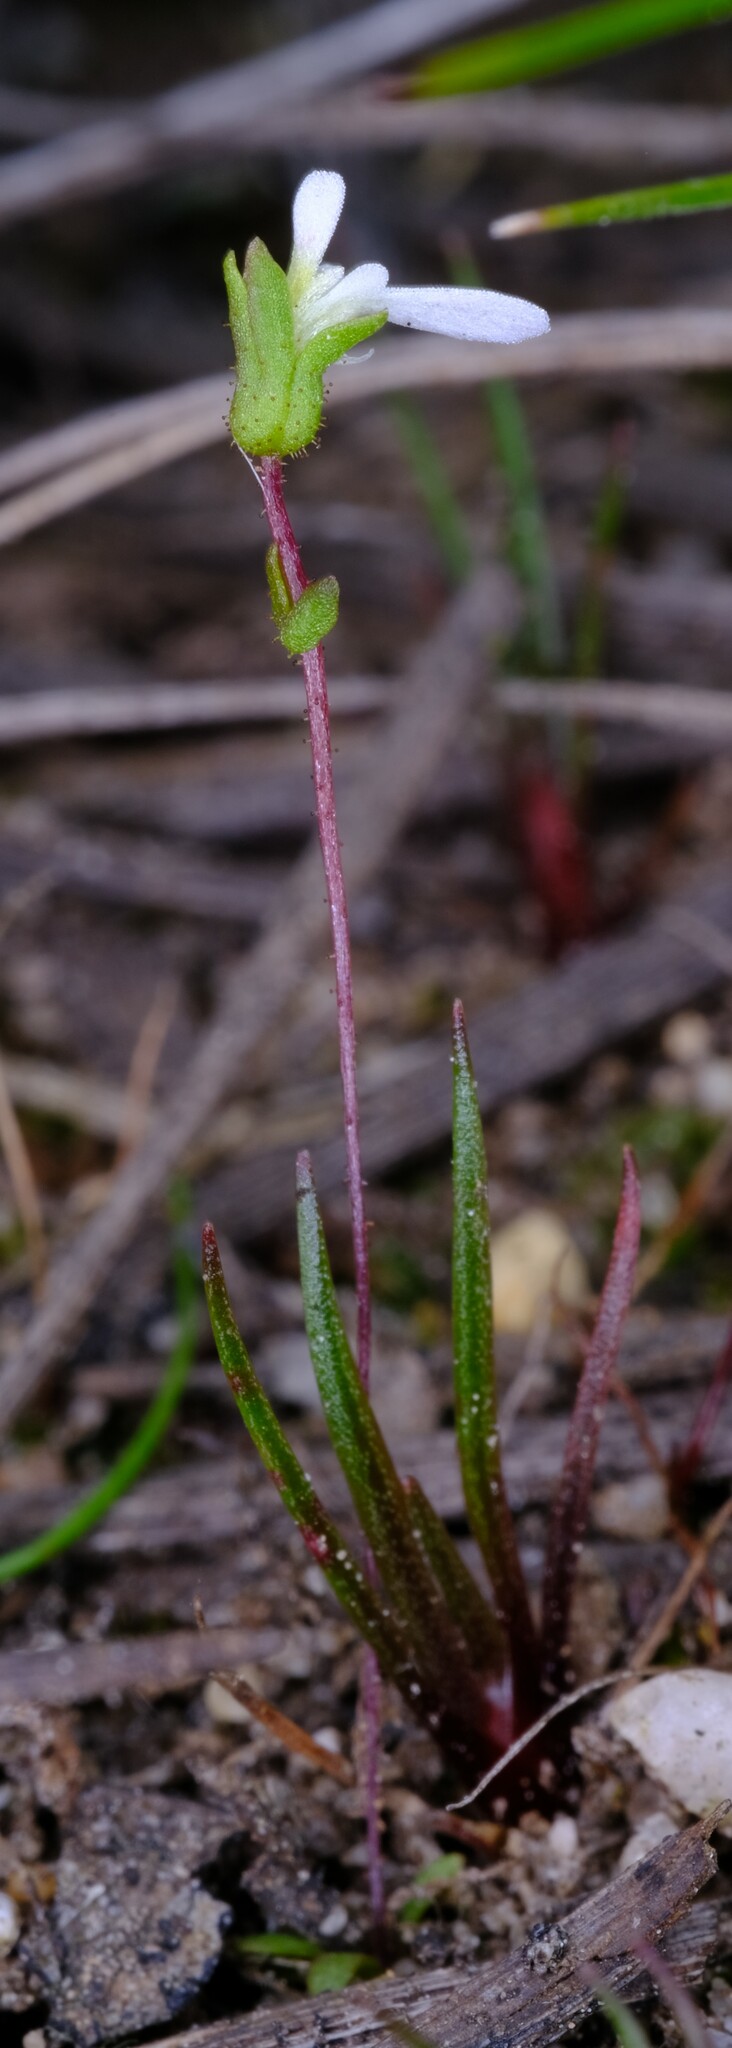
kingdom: Plantae
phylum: Tracheophyta
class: Magnoliopsida
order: Asterales
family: Stylidiaceae
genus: Stylidium
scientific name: Stylidium perpusillum
